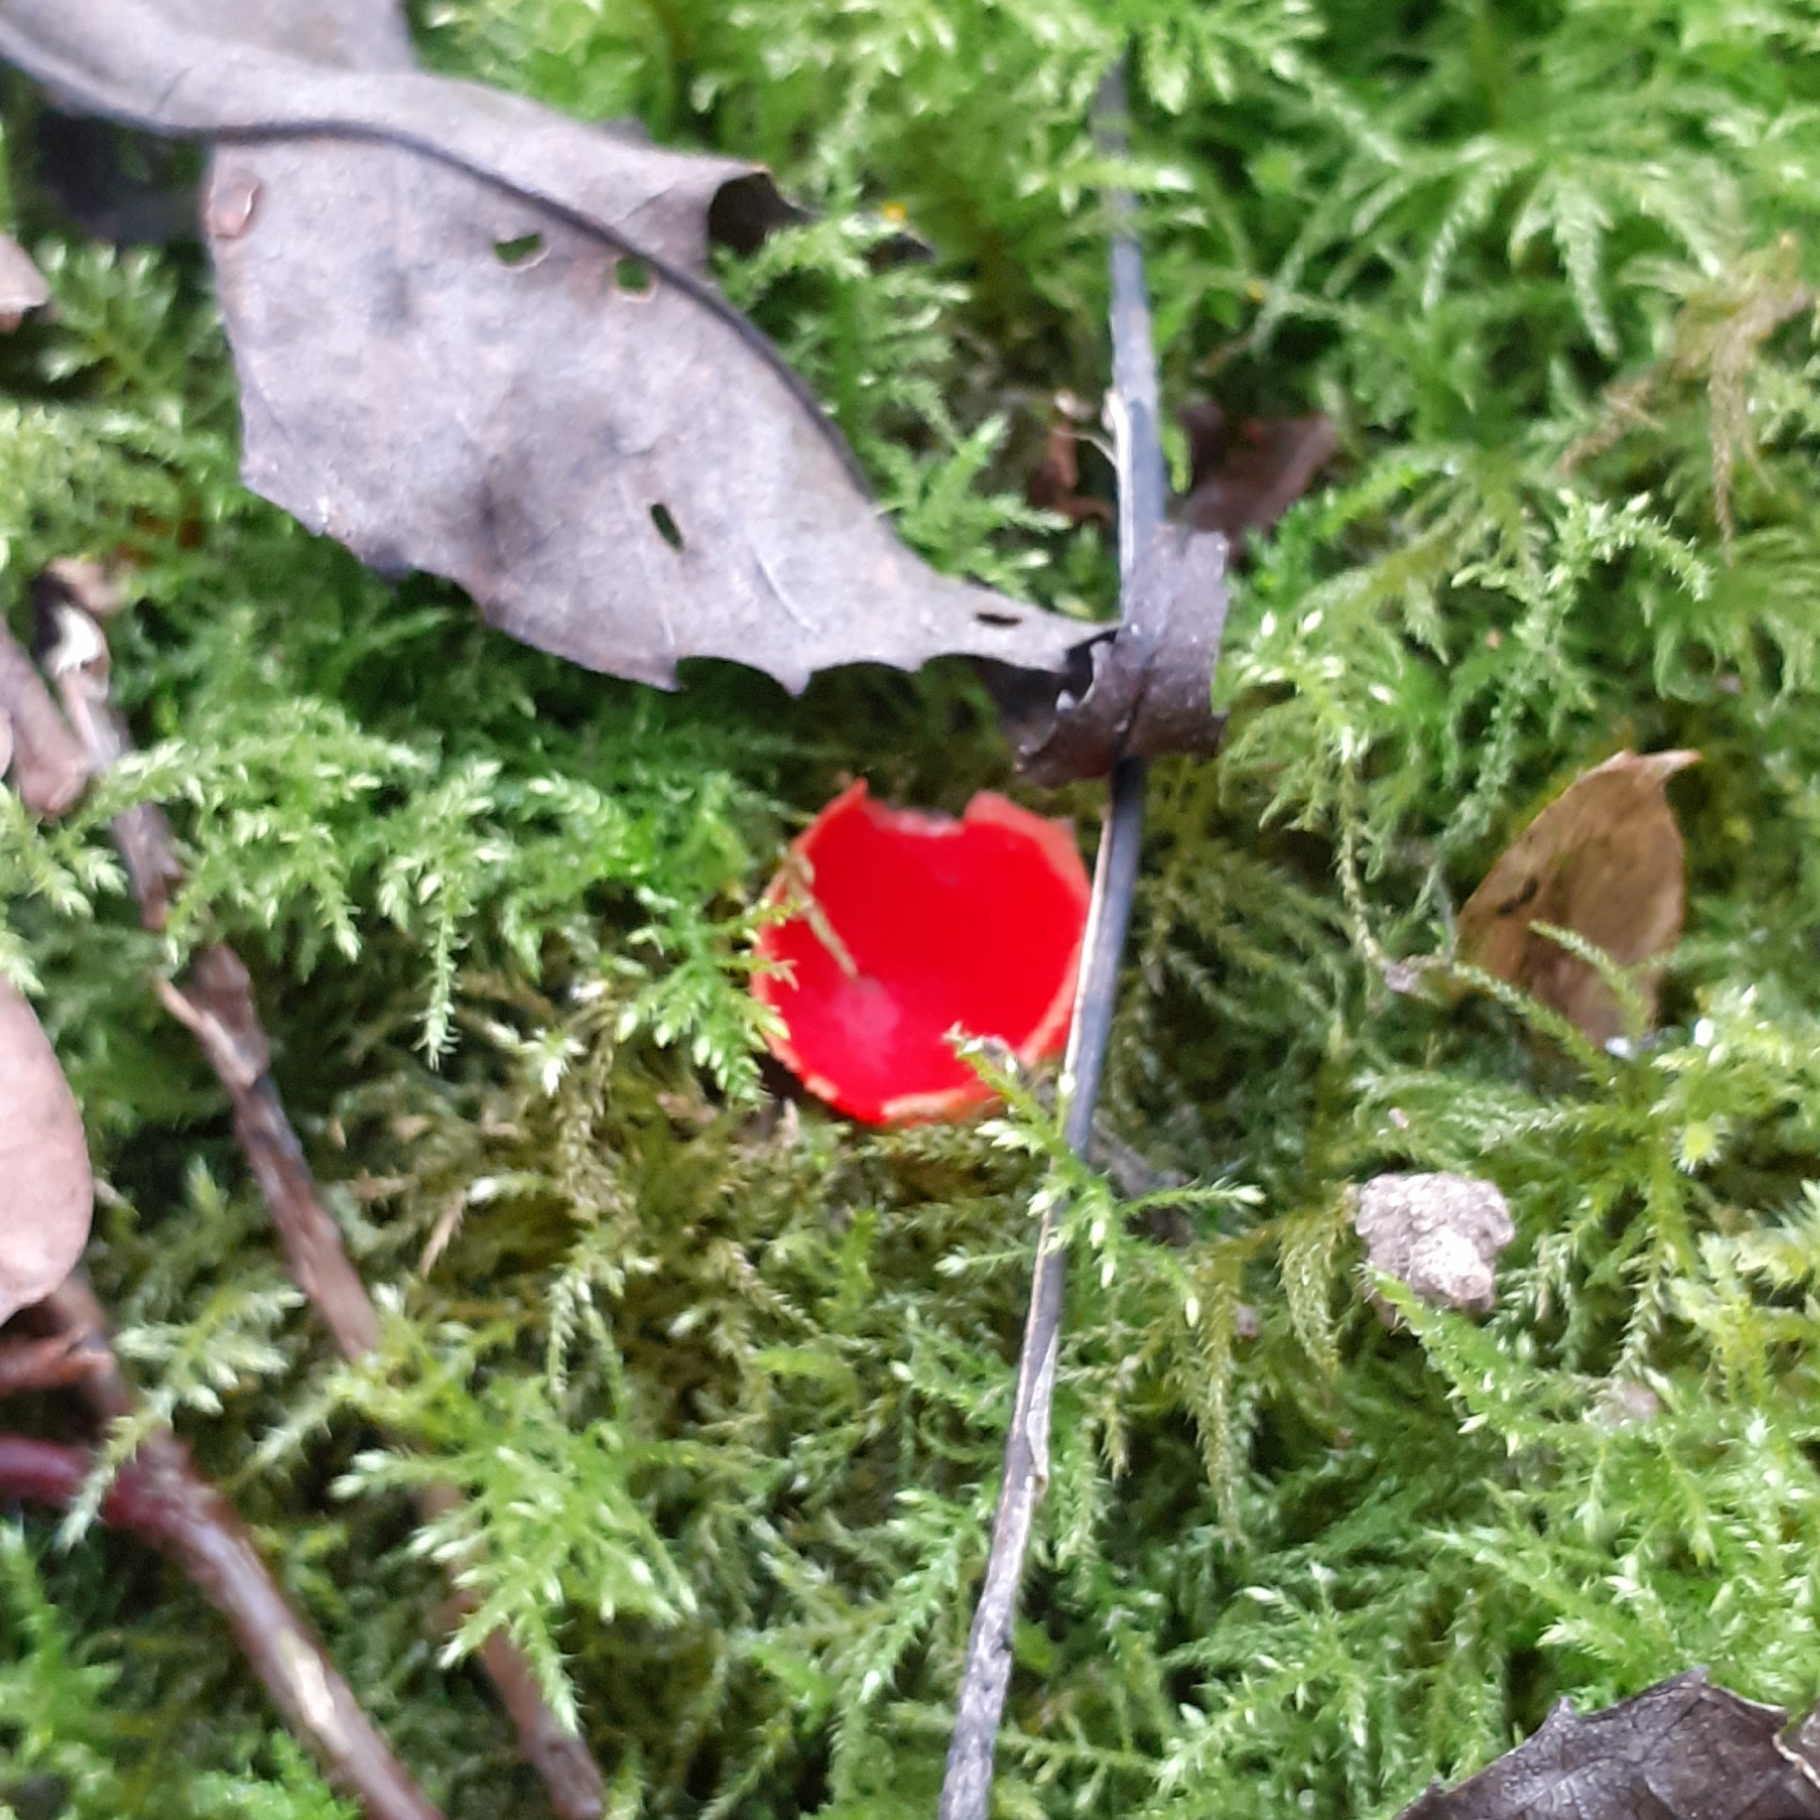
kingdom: Fungi
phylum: Ascomycota
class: Pezizomycetes
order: Pezizales
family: Sarcoscyphaceae
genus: Sarcoscypha
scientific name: Sarcoscypha
